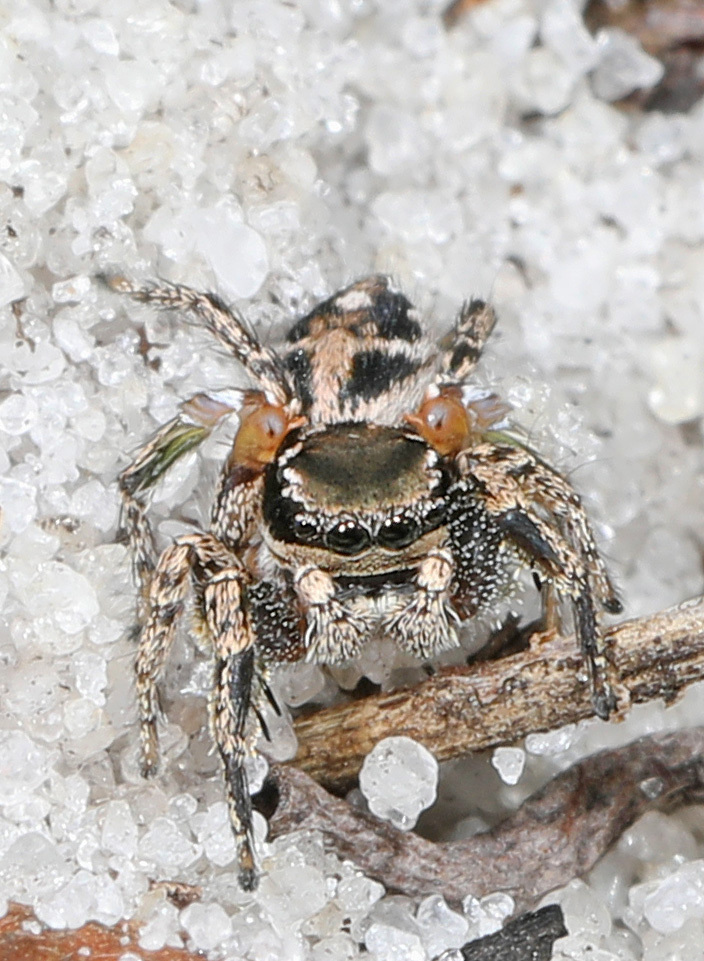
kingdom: Animalia
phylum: Arthropoda
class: Arachnida
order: Araneae
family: Salticidae
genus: Habronattus
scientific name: Habronattus brunneus
